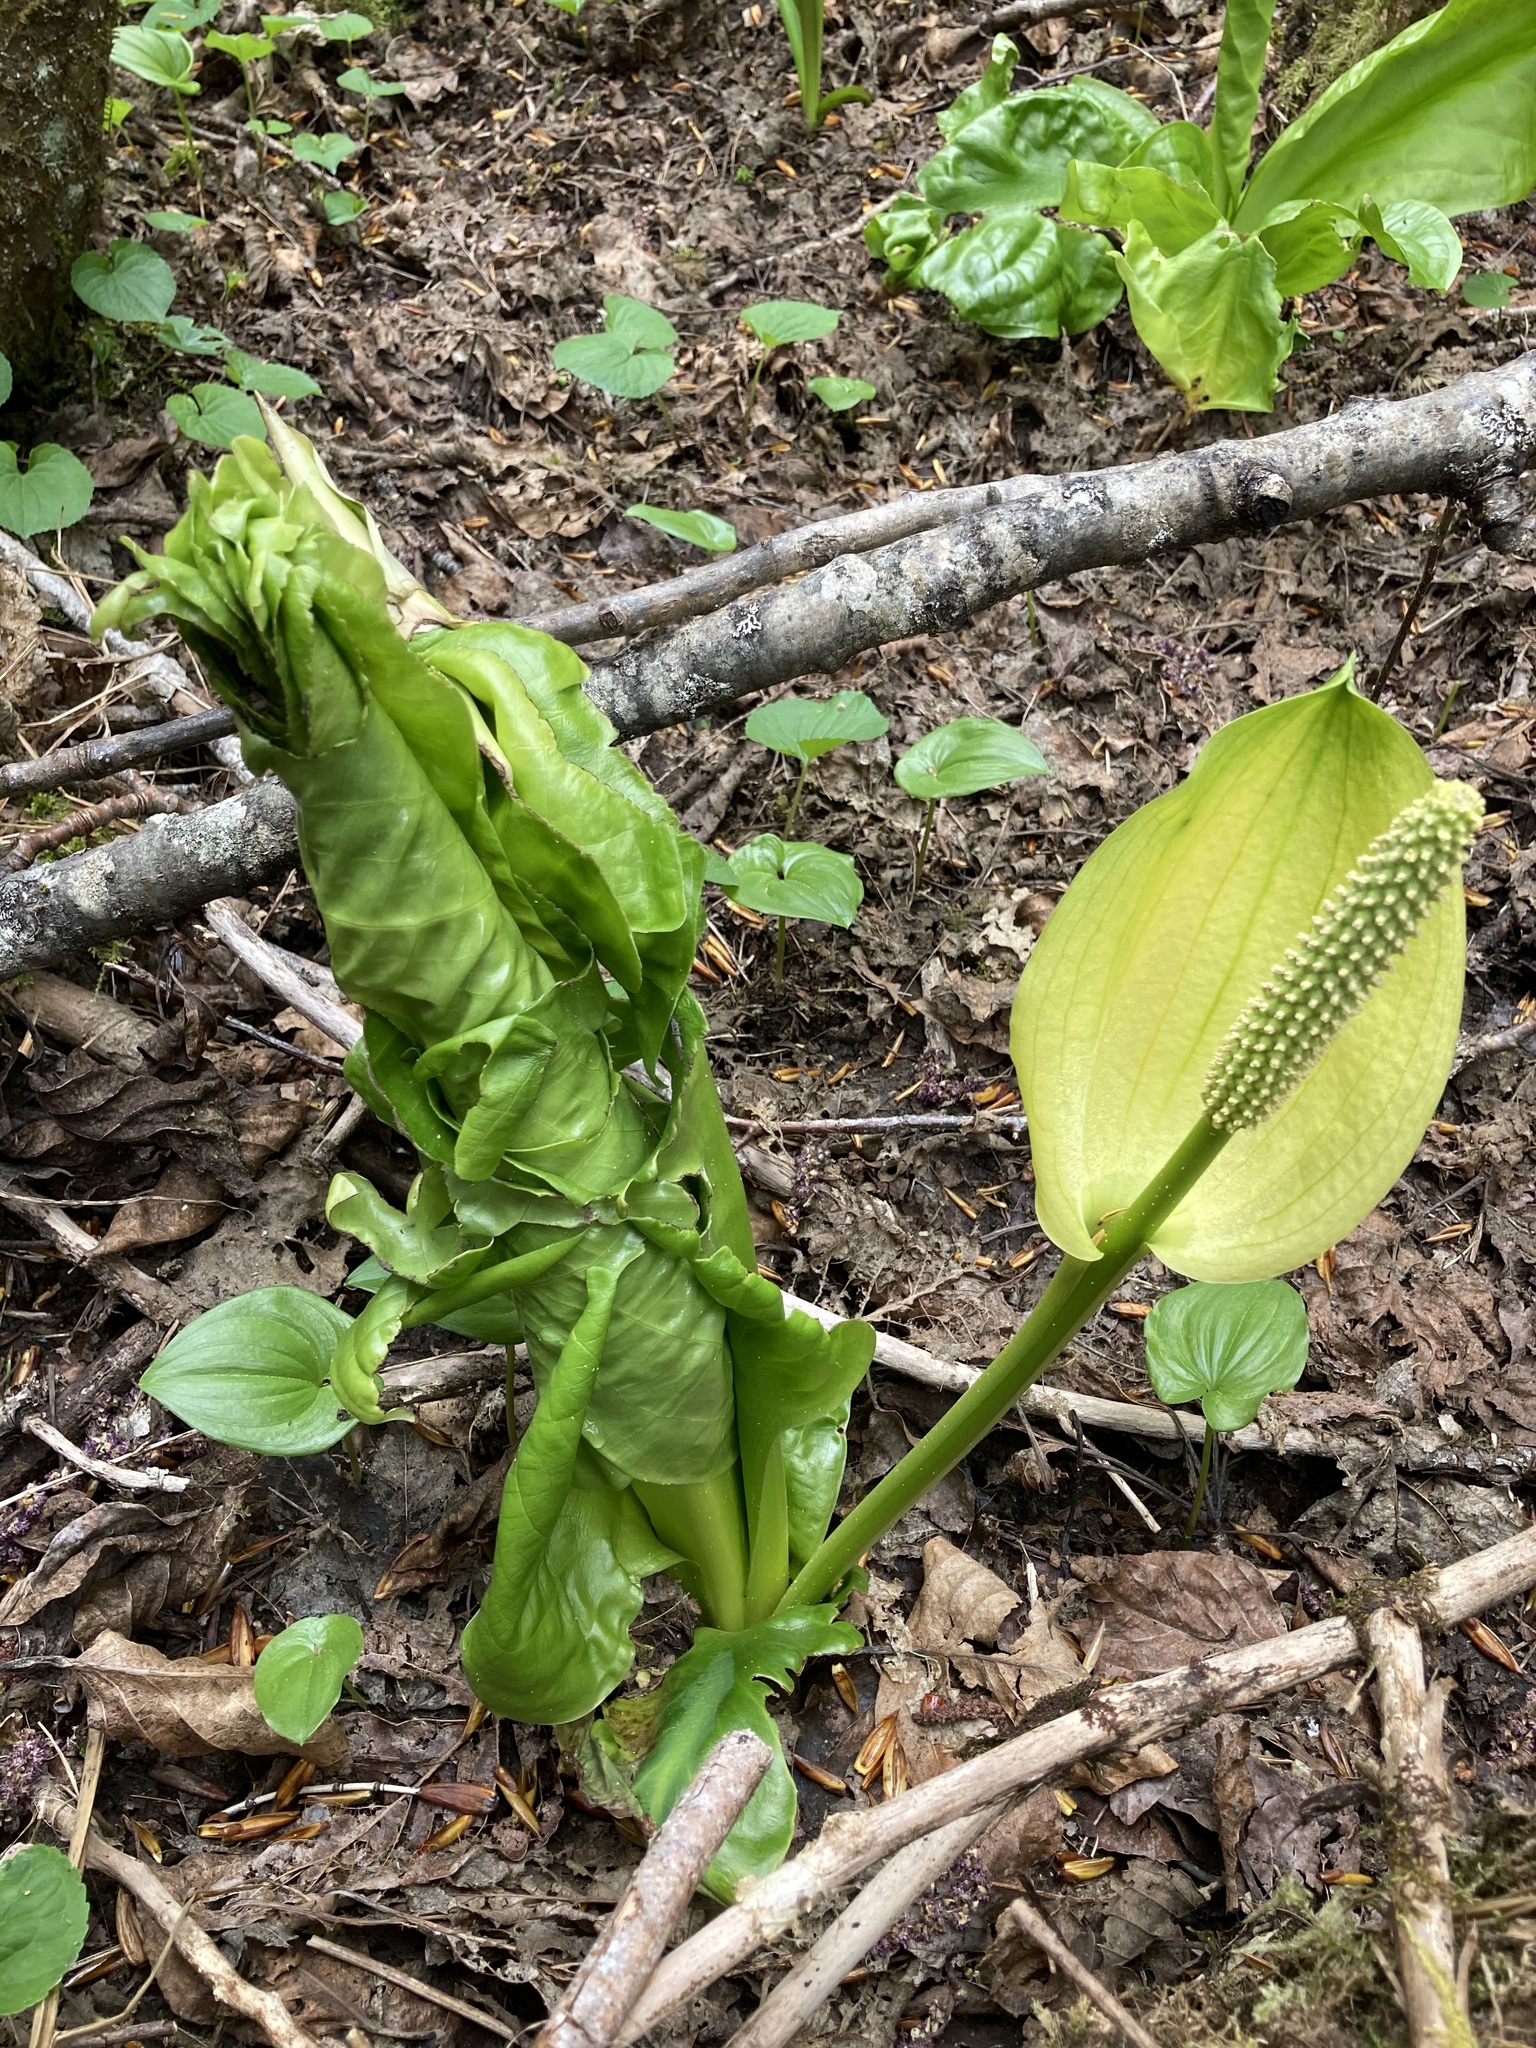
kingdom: Plantae
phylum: Tracheophyta
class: Liliopsida
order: Alismatales
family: Araceae
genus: Lysichiton
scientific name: Lysichiton americanus
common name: American skunk cabbage
